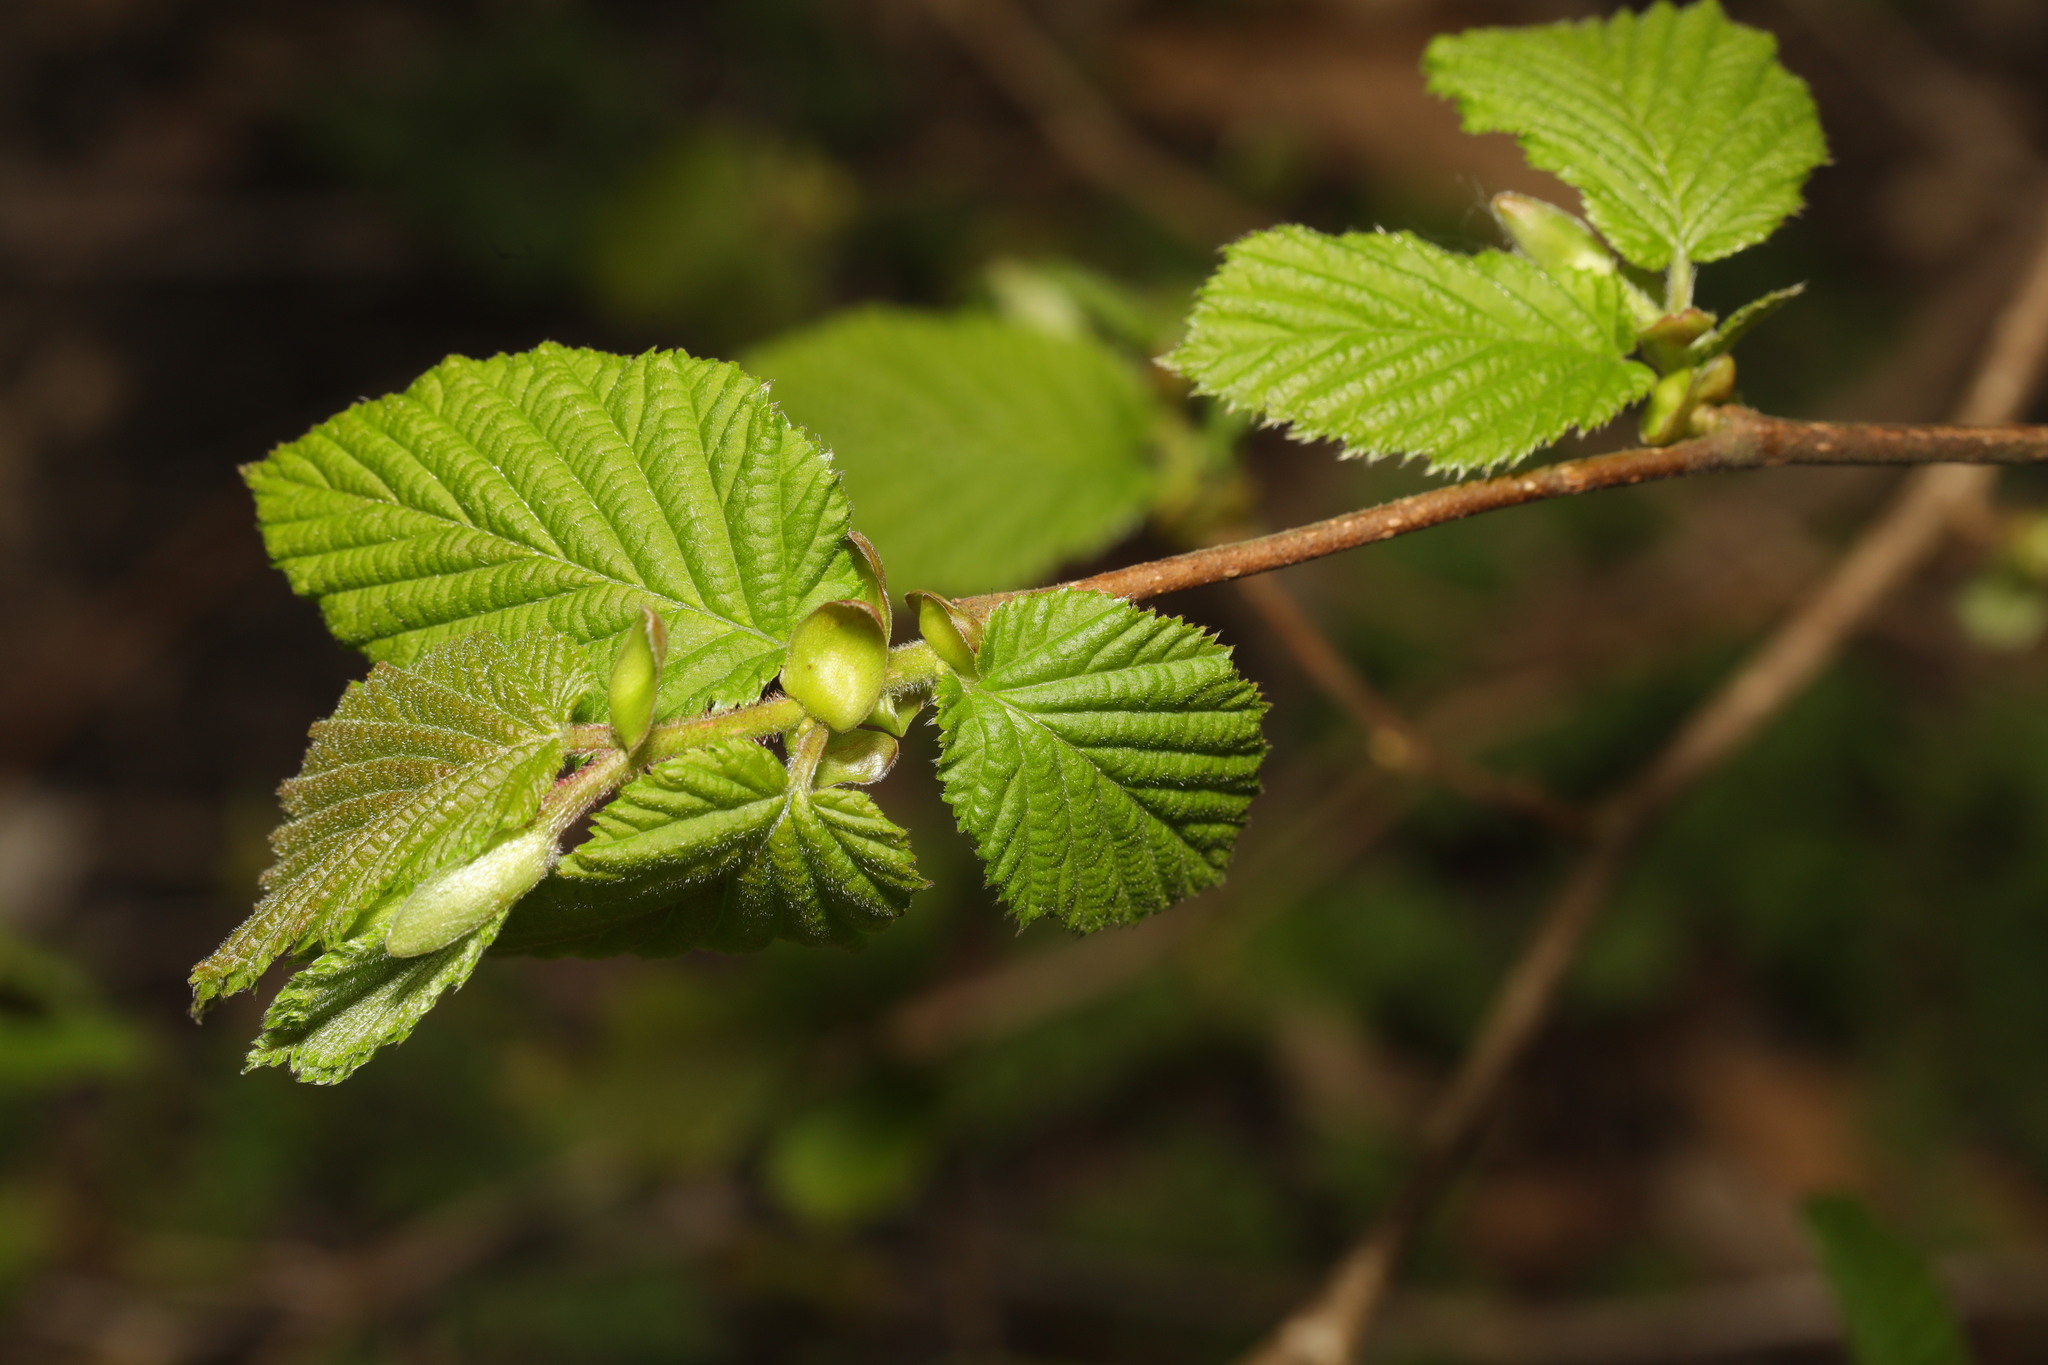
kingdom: Plantae
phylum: Tracheophyta
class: Magnoliopsida
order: Fagales
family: Betulaceae
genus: Corylus
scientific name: Corylus avellana
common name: European hazel
